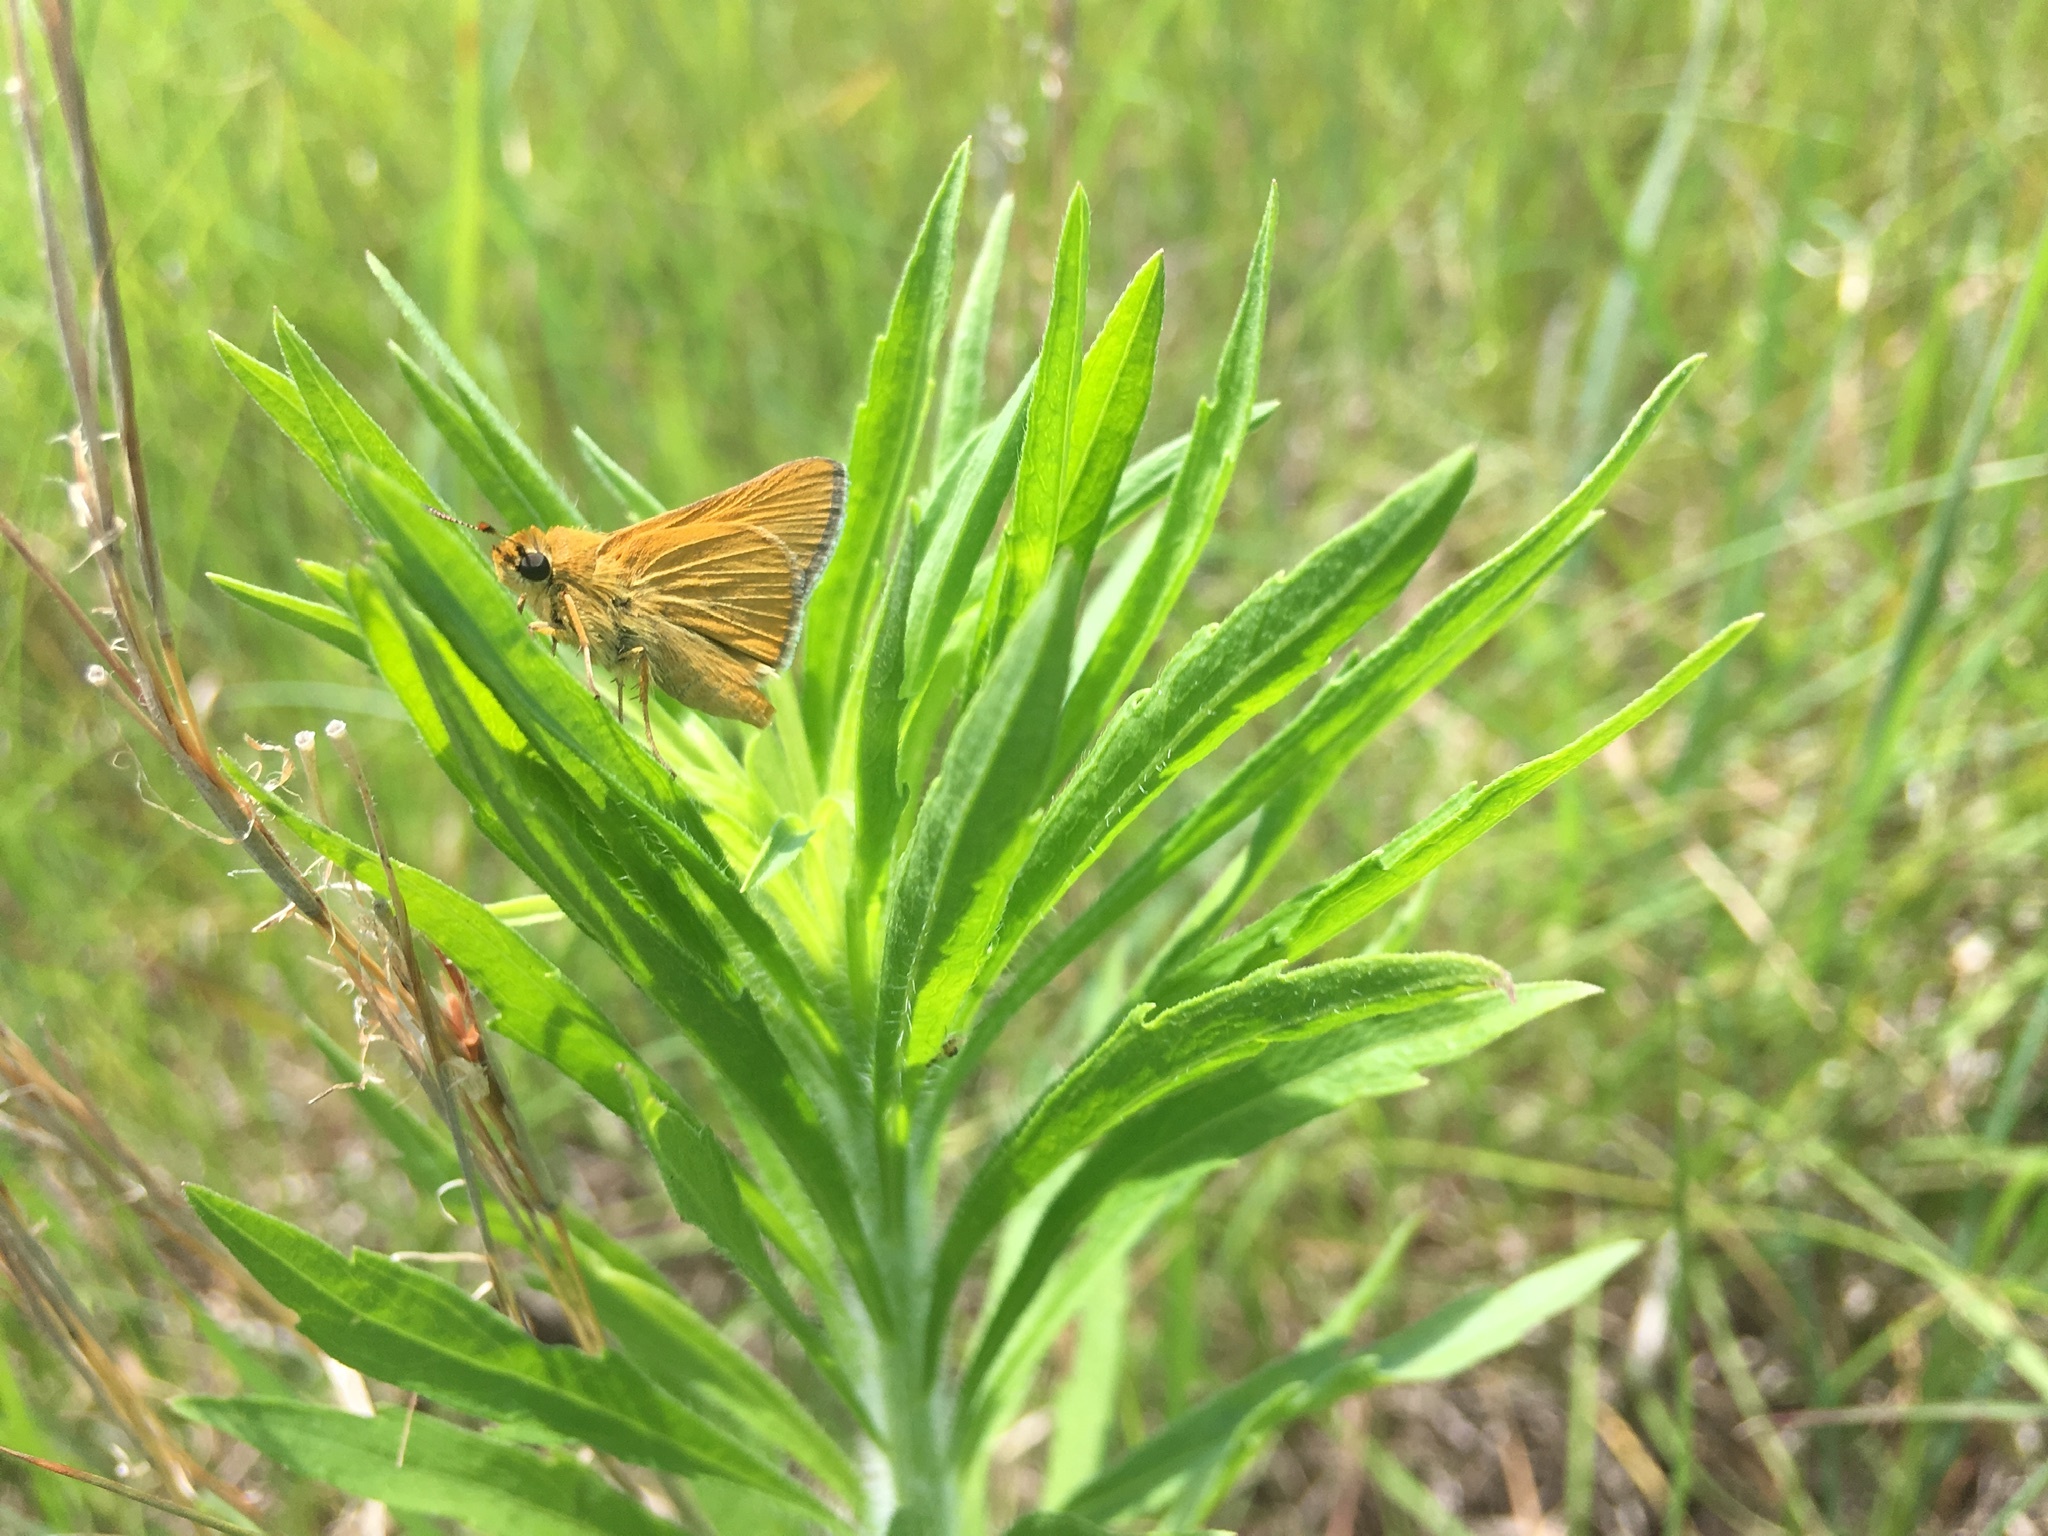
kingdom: Animalia
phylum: Arthropoda
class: Insecta
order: Lepidoptera
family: Hesperiidae
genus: Atrytone
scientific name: Atrytone arogos
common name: Arogos skipper
